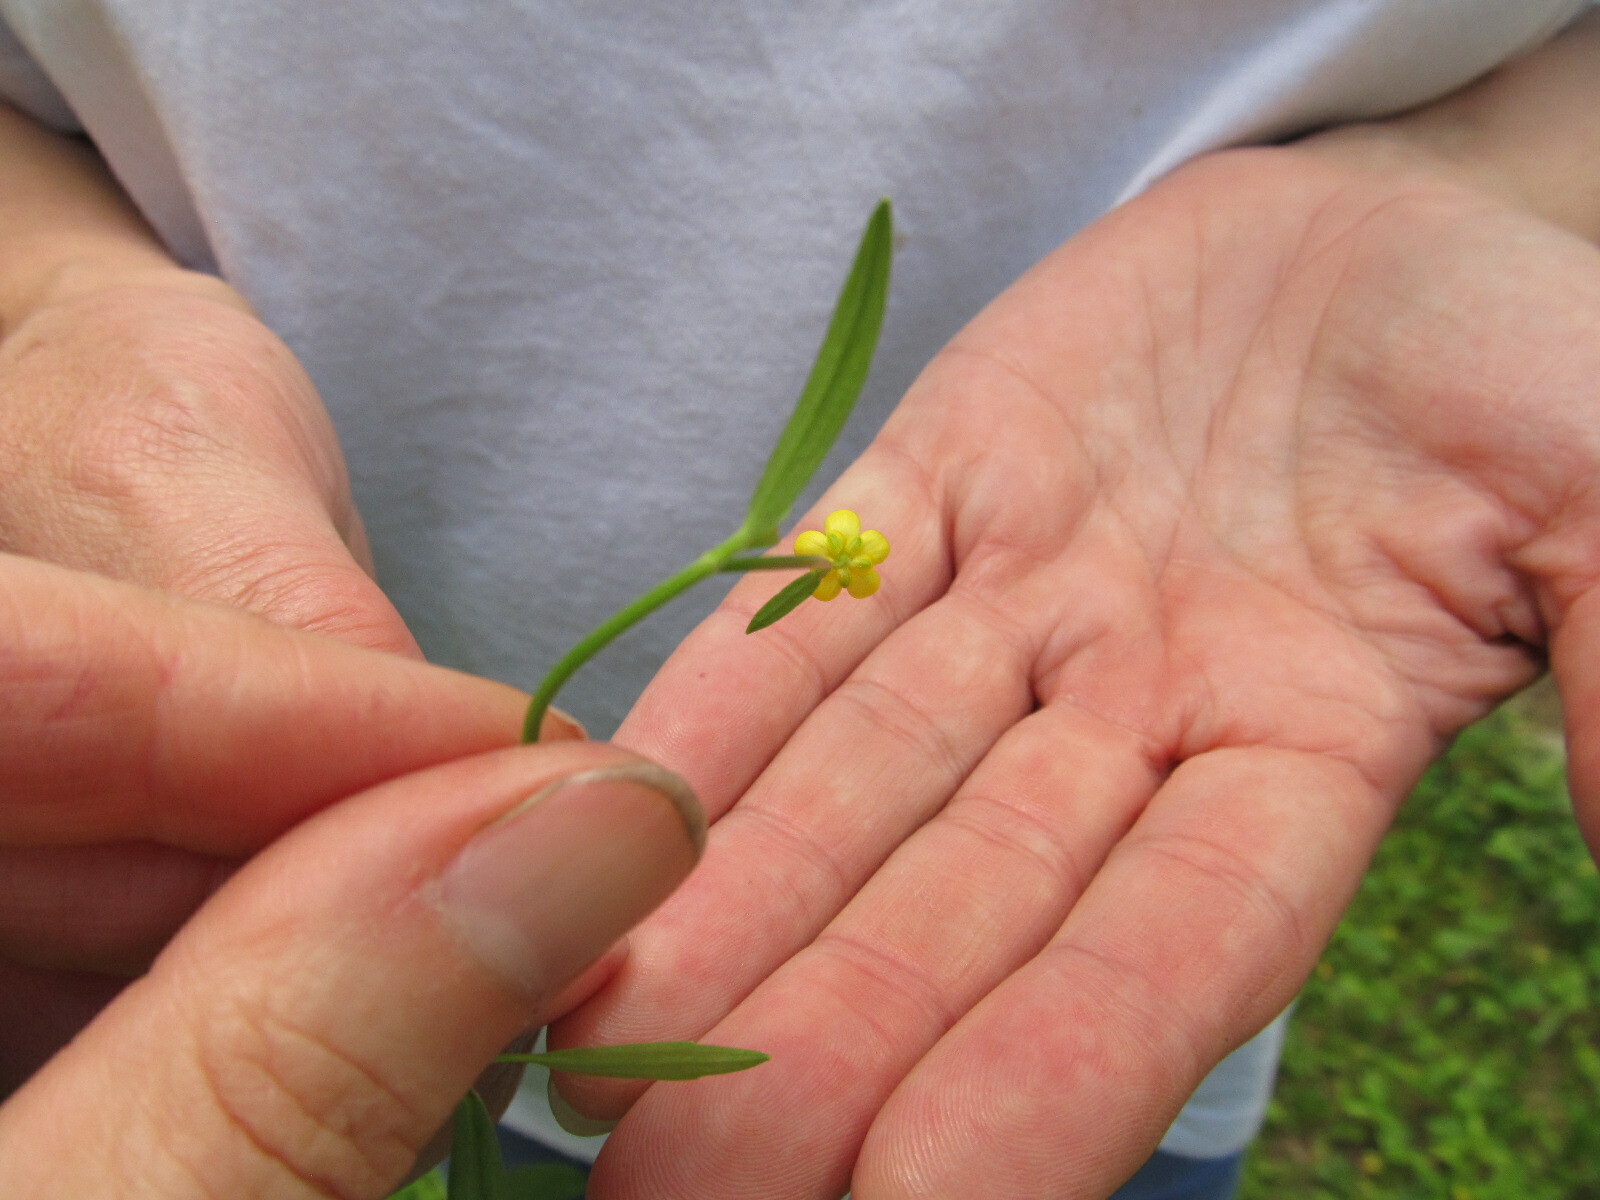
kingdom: Plantae
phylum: Tracheophyta
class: Magnoliopsida
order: Ranunculales
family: Ranunculaceae
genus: Ranunculus
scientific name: Ranunculus flammula
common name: Lesser spearwort
